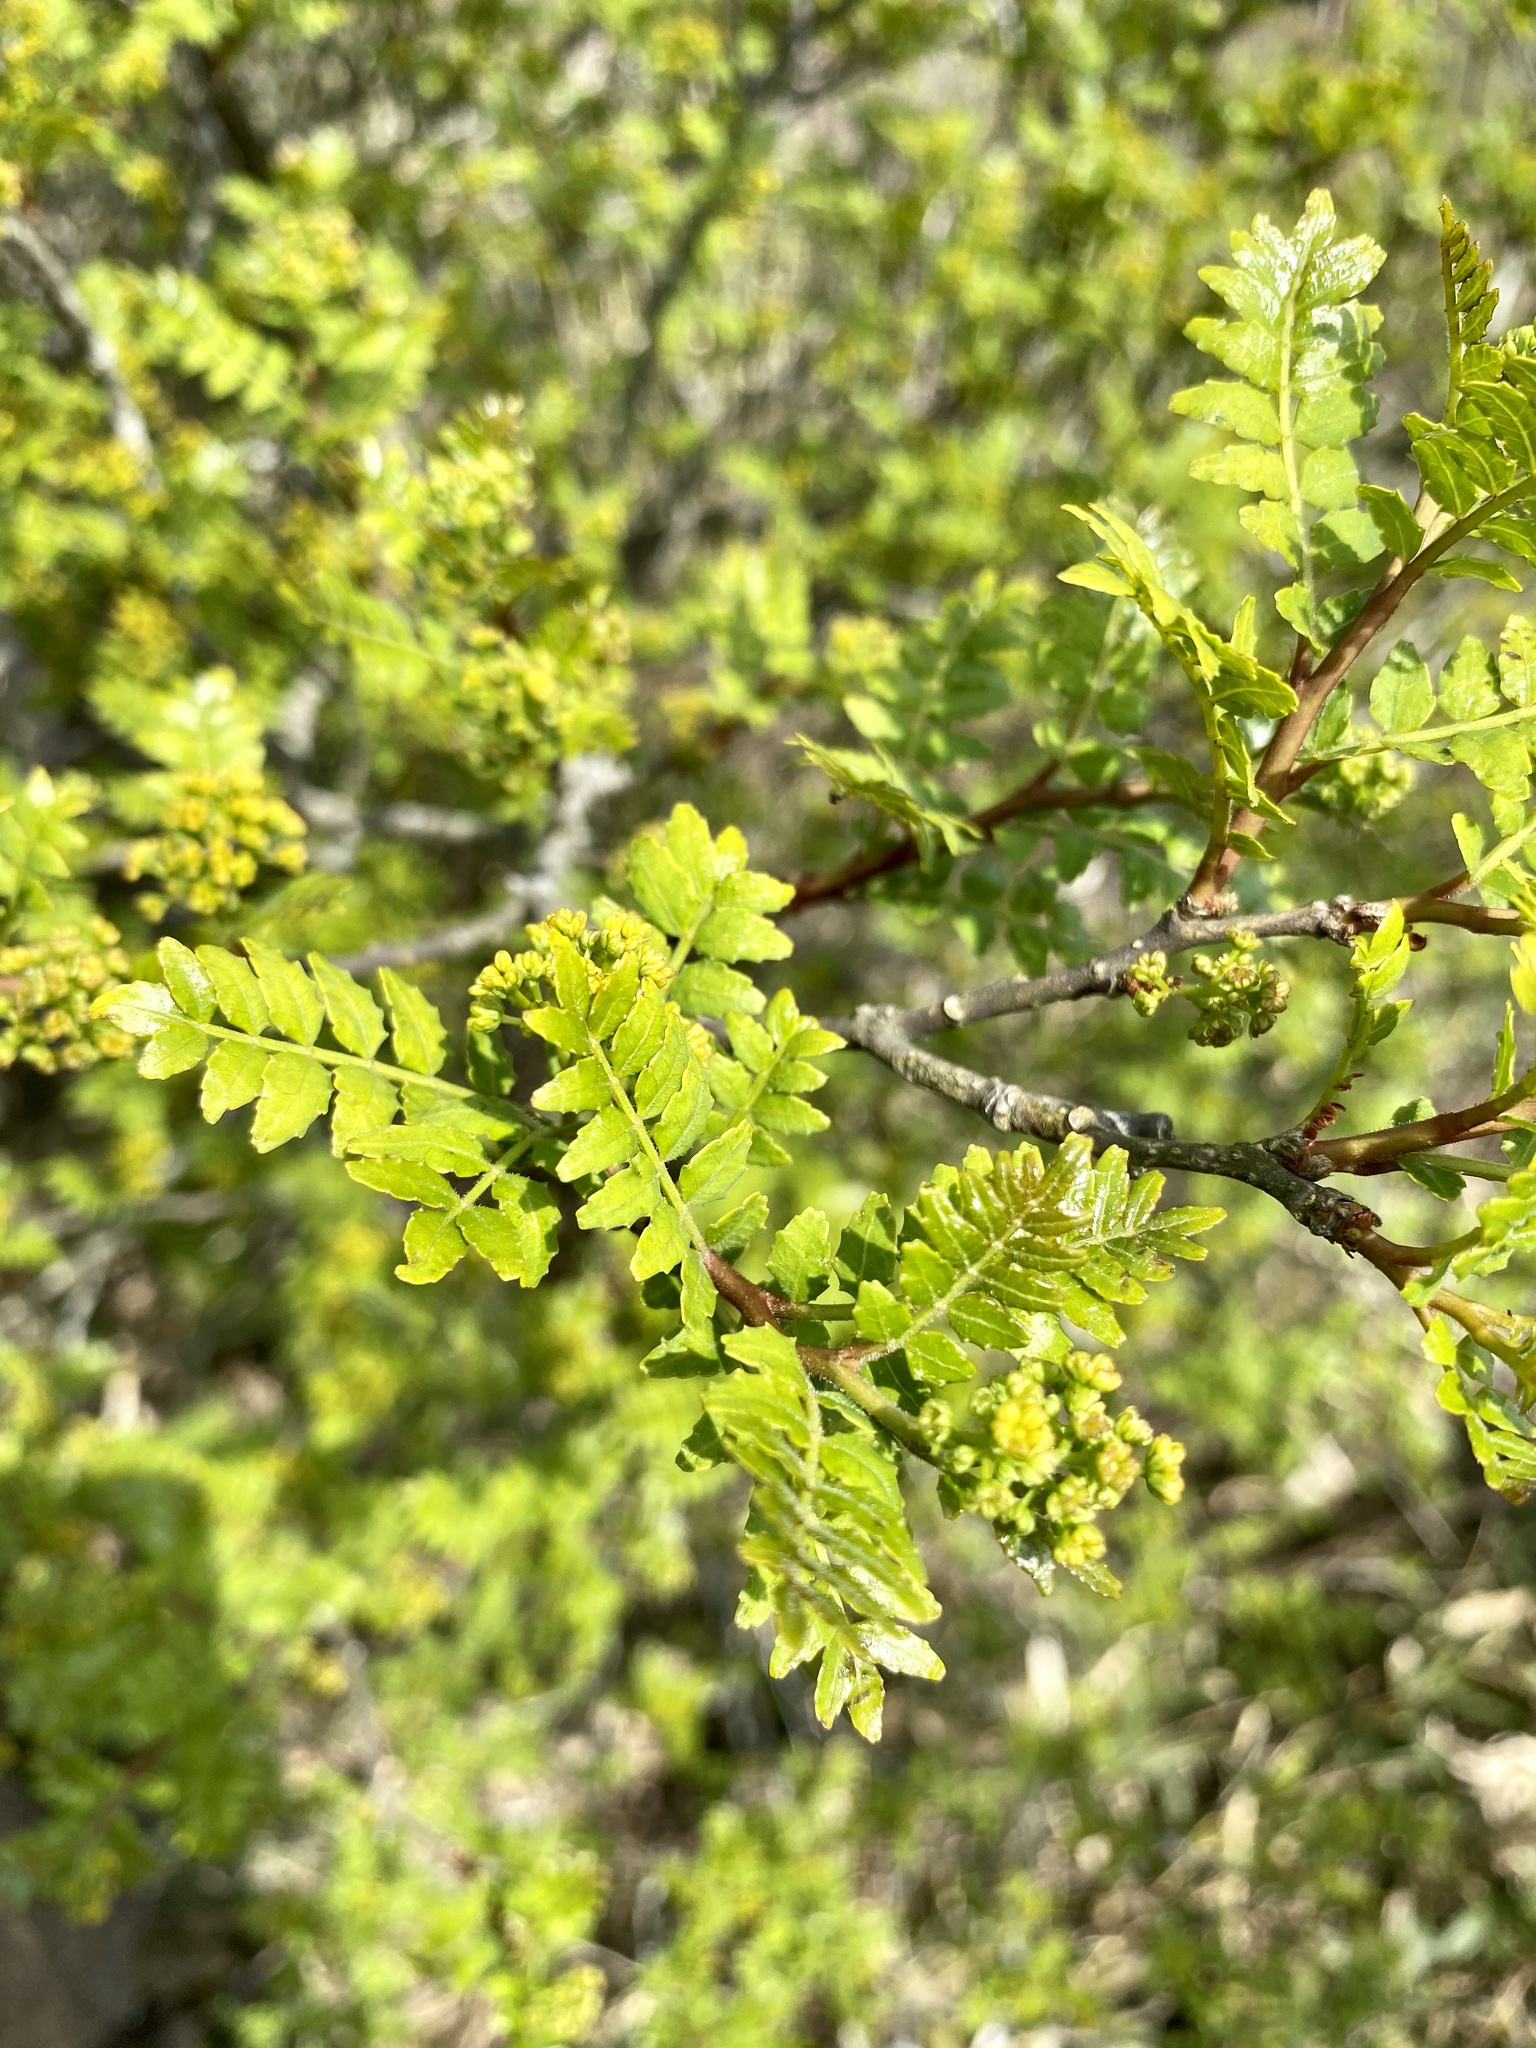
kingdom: Plantae
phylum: Tracheophyta
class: Magnoliopsida
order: Sapindales
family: Rutaceae
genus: Zanthoxylum
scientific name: Zanthoxylum piperitum
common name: Japanese-pepper
